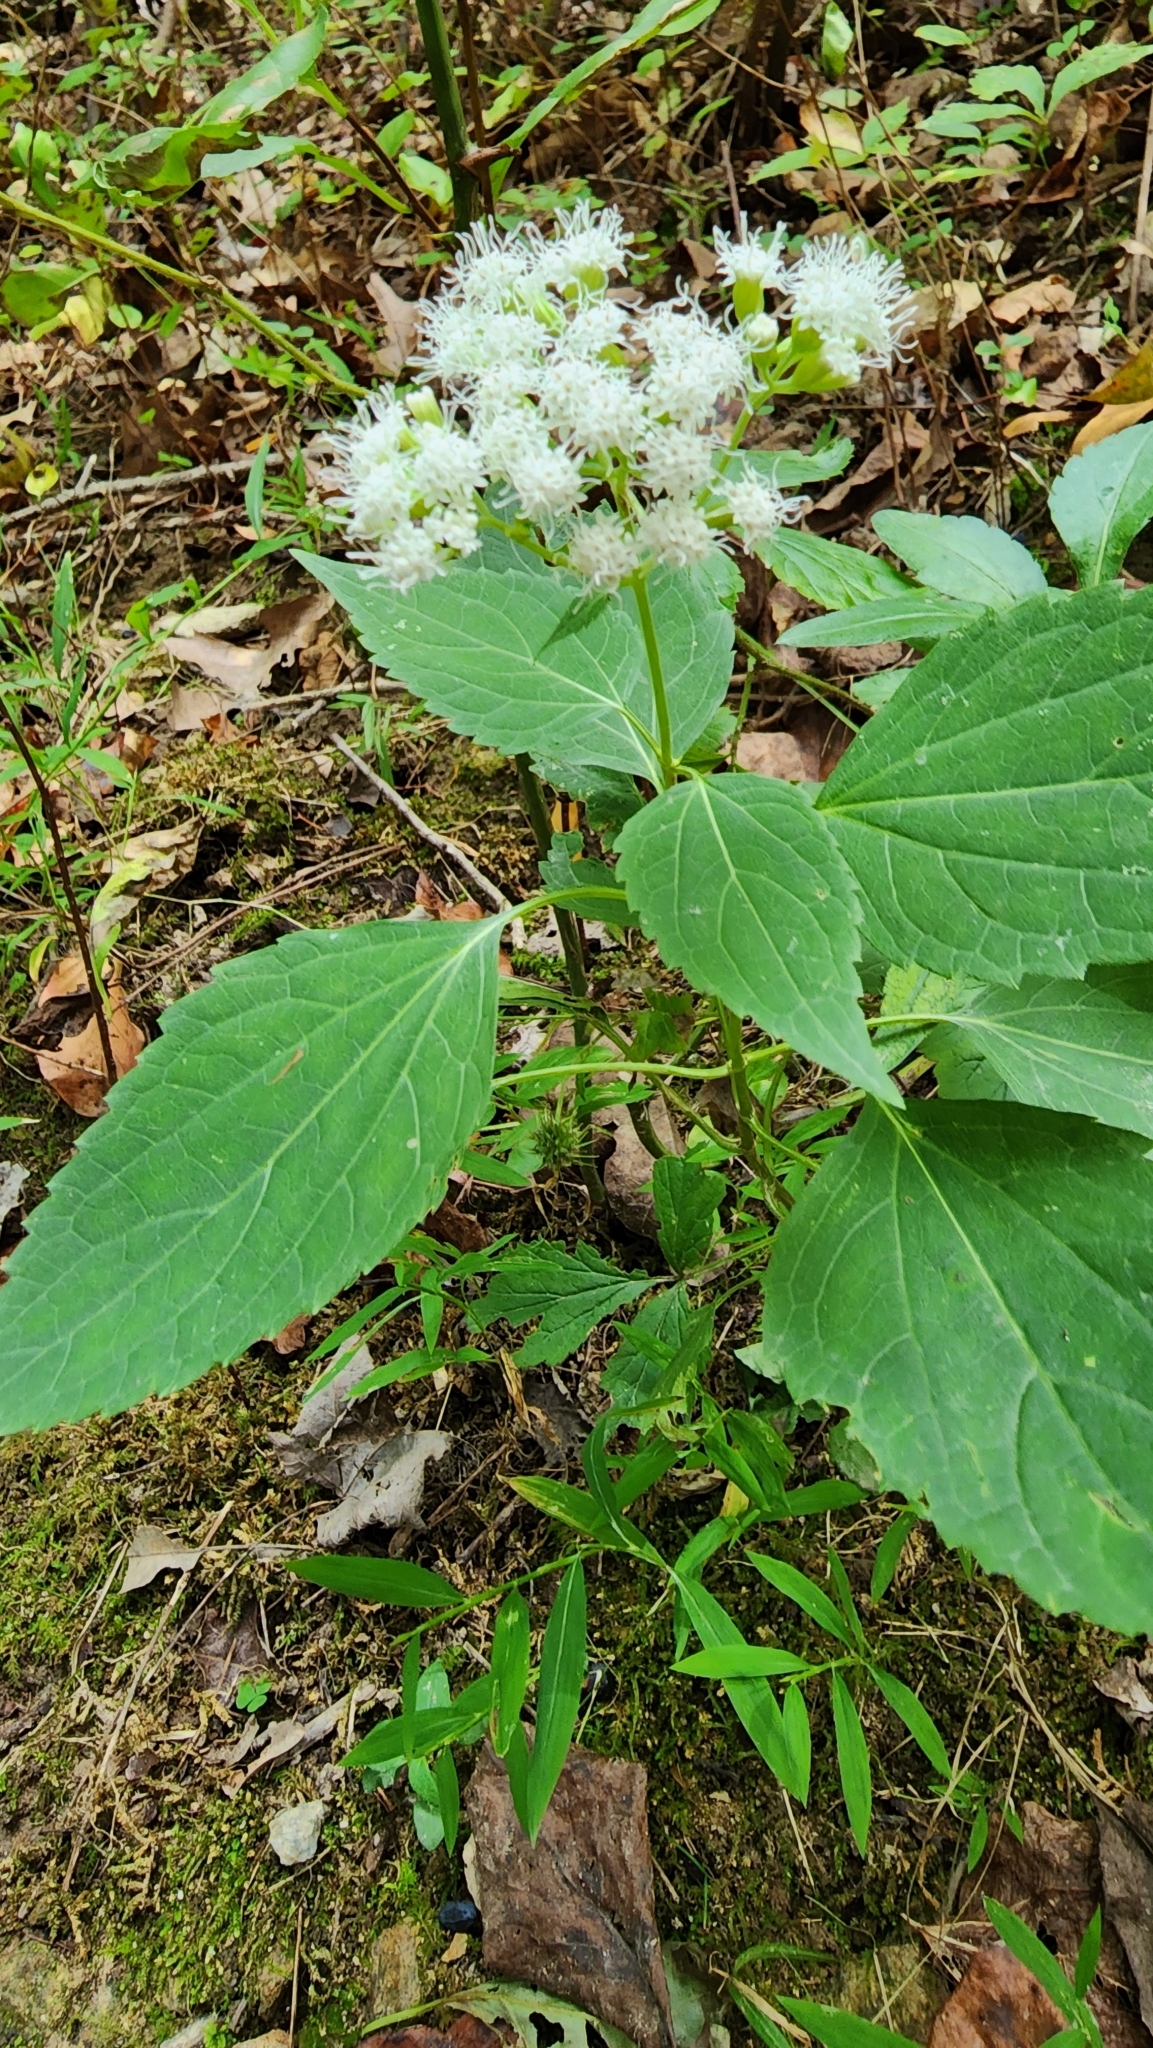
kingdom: Plantae
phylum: Tracheophyta
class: Magnoliopsida
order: Asterales
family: Asteraceae
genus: Ageratina
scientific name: Ageratina altissima
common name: White snakeroot
